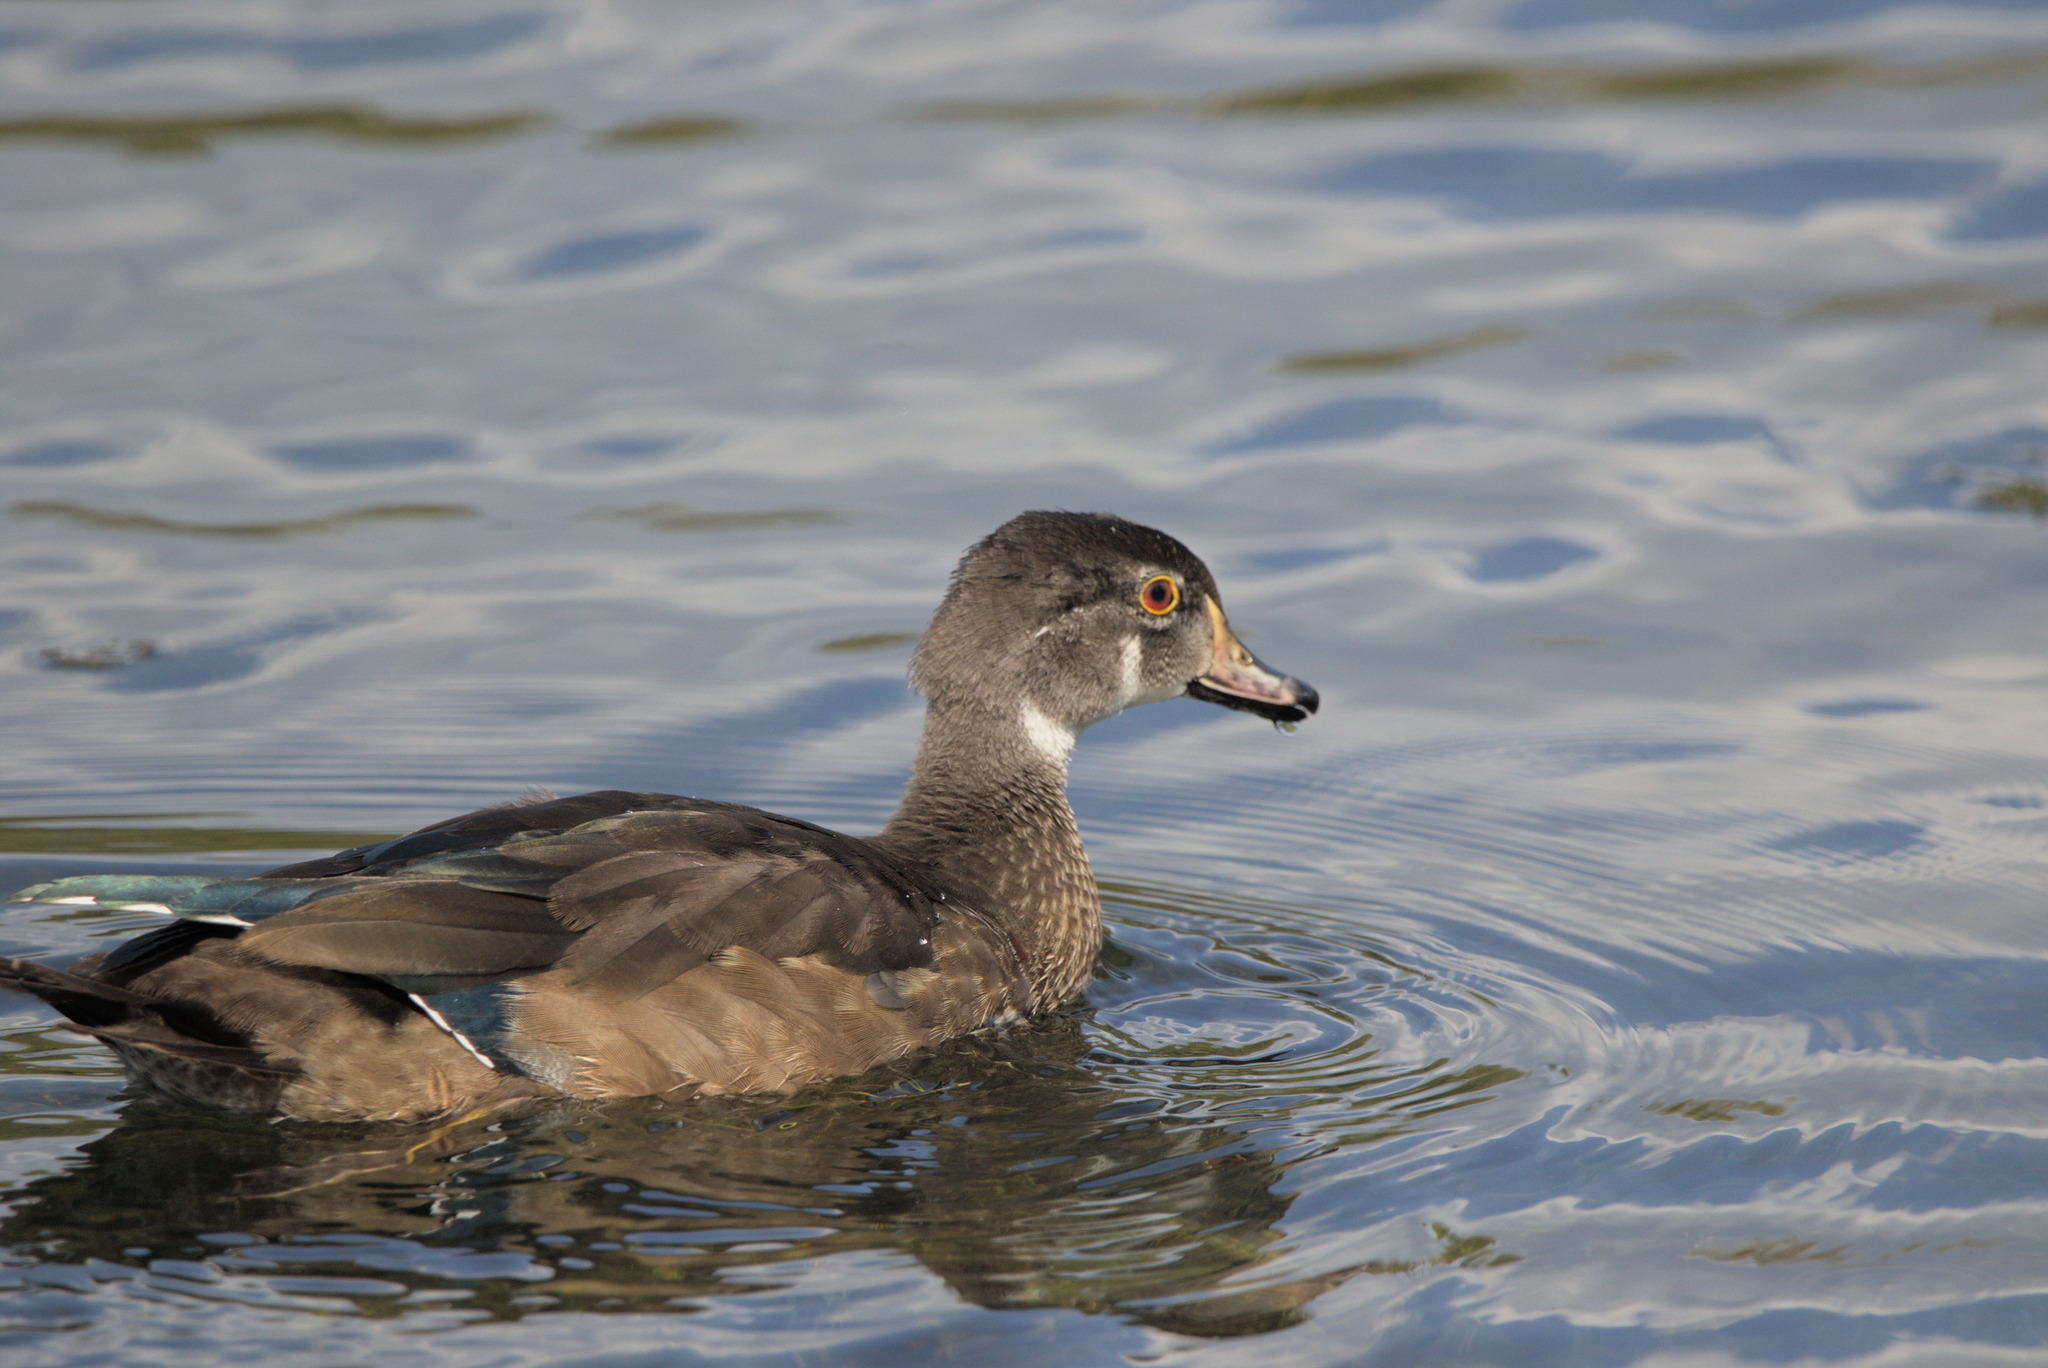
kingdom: Animalia
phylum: Chordata
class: Aves
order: Anseriformes
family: Anatidae
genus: Aix
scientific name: Aix sponsa
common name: Wood duck
